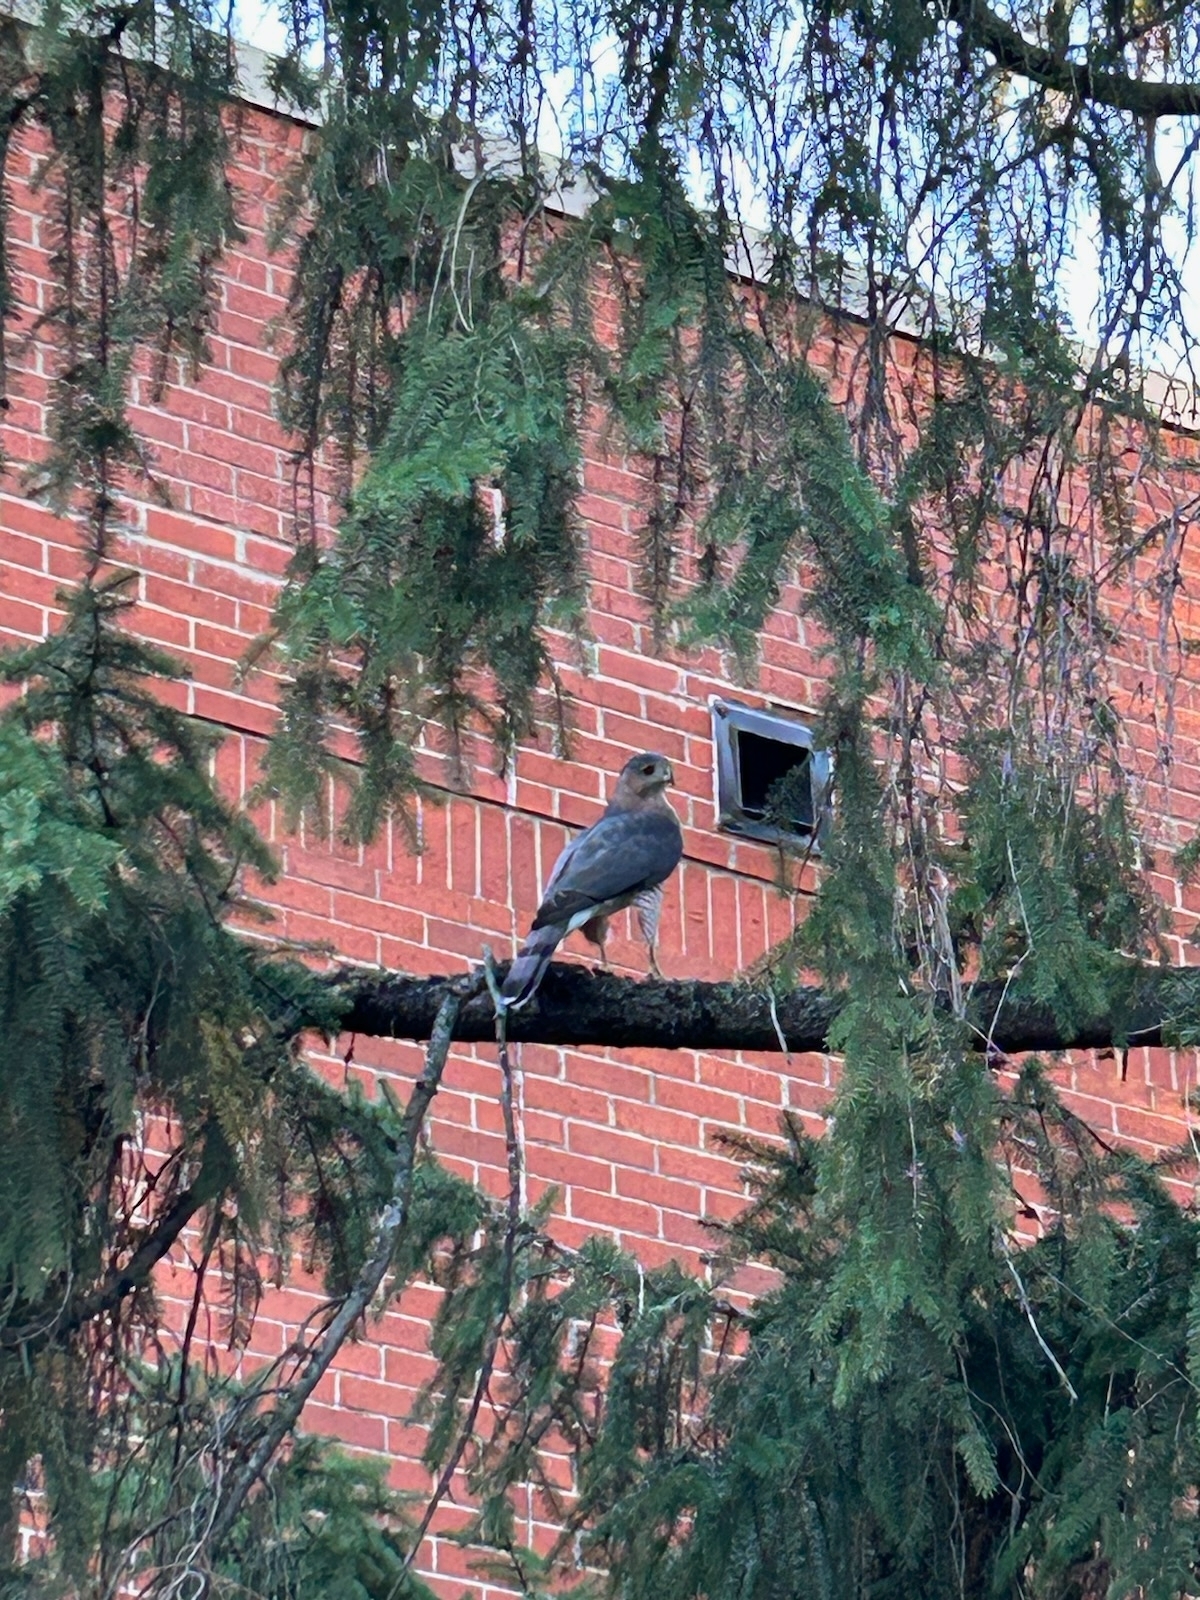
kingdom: Animalia
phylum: Chordata
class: Aves
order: Accipitriformes
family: Accipitridae
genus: Accipiter
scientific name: Accipiter cooperii
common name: Cooper's hawk
